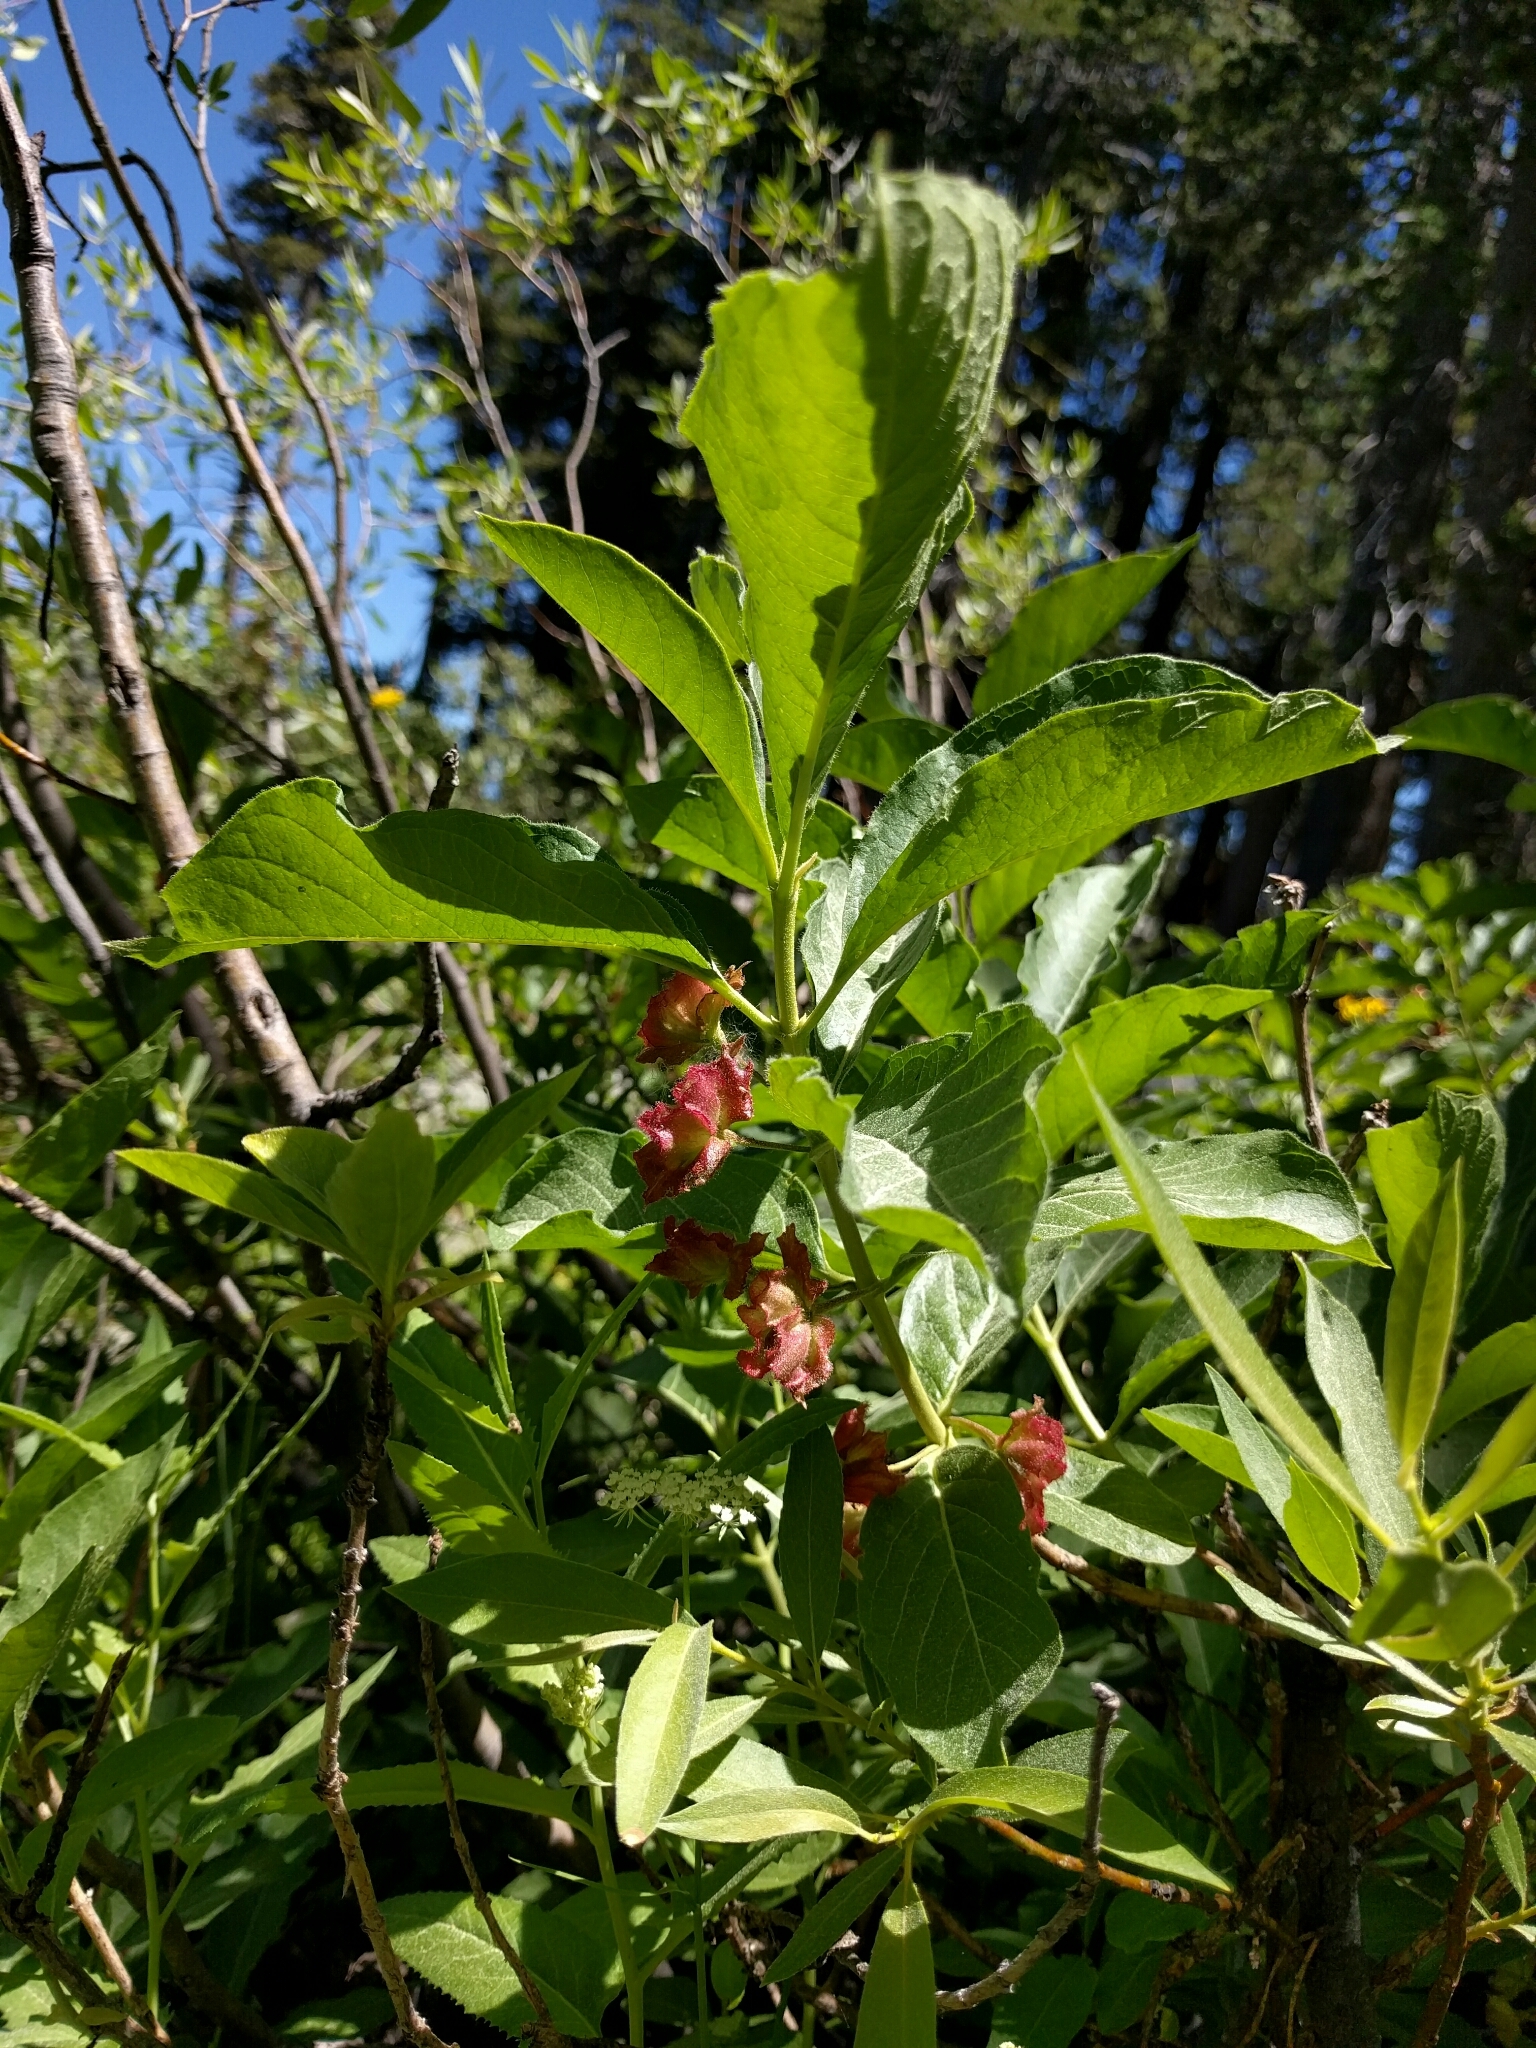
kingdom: Plantae
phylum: Tracheophyta
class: Magnoliopsida
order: Dipsacales
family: Caprifoliaceae
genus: Lonicera
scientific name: Lonicera involucrata
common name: Californian honeysuckle
